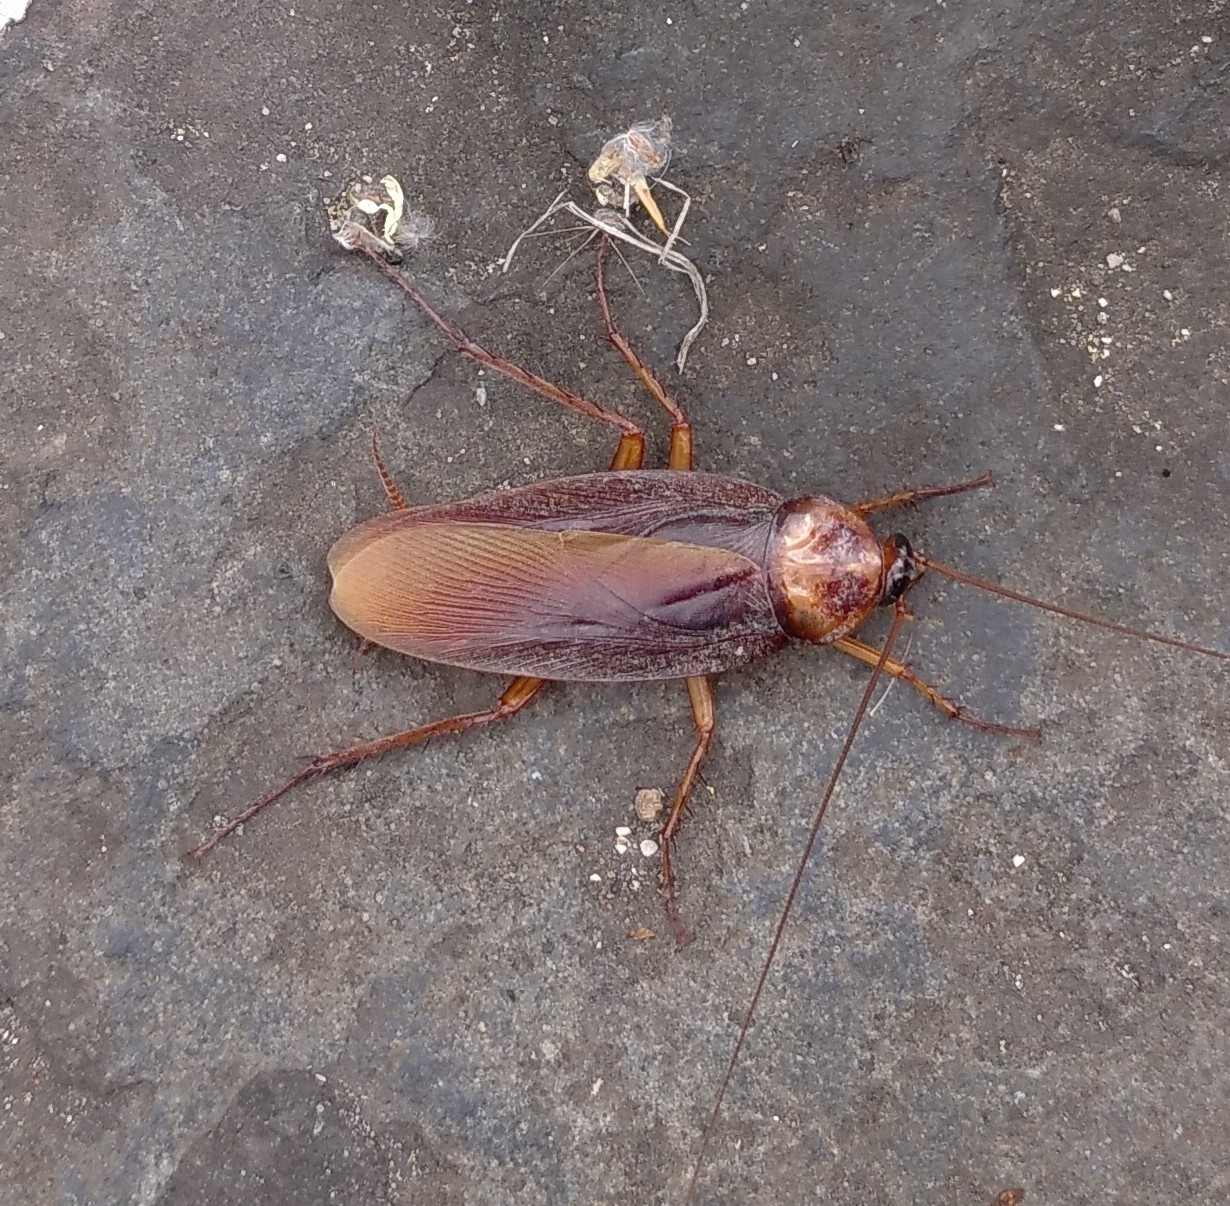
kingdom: Animalia
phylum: Arthropoda
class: Insecta
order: Blattodea
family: Blattidae
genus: Periplaneta
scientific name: Periplaneta americana
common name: American cockroach
